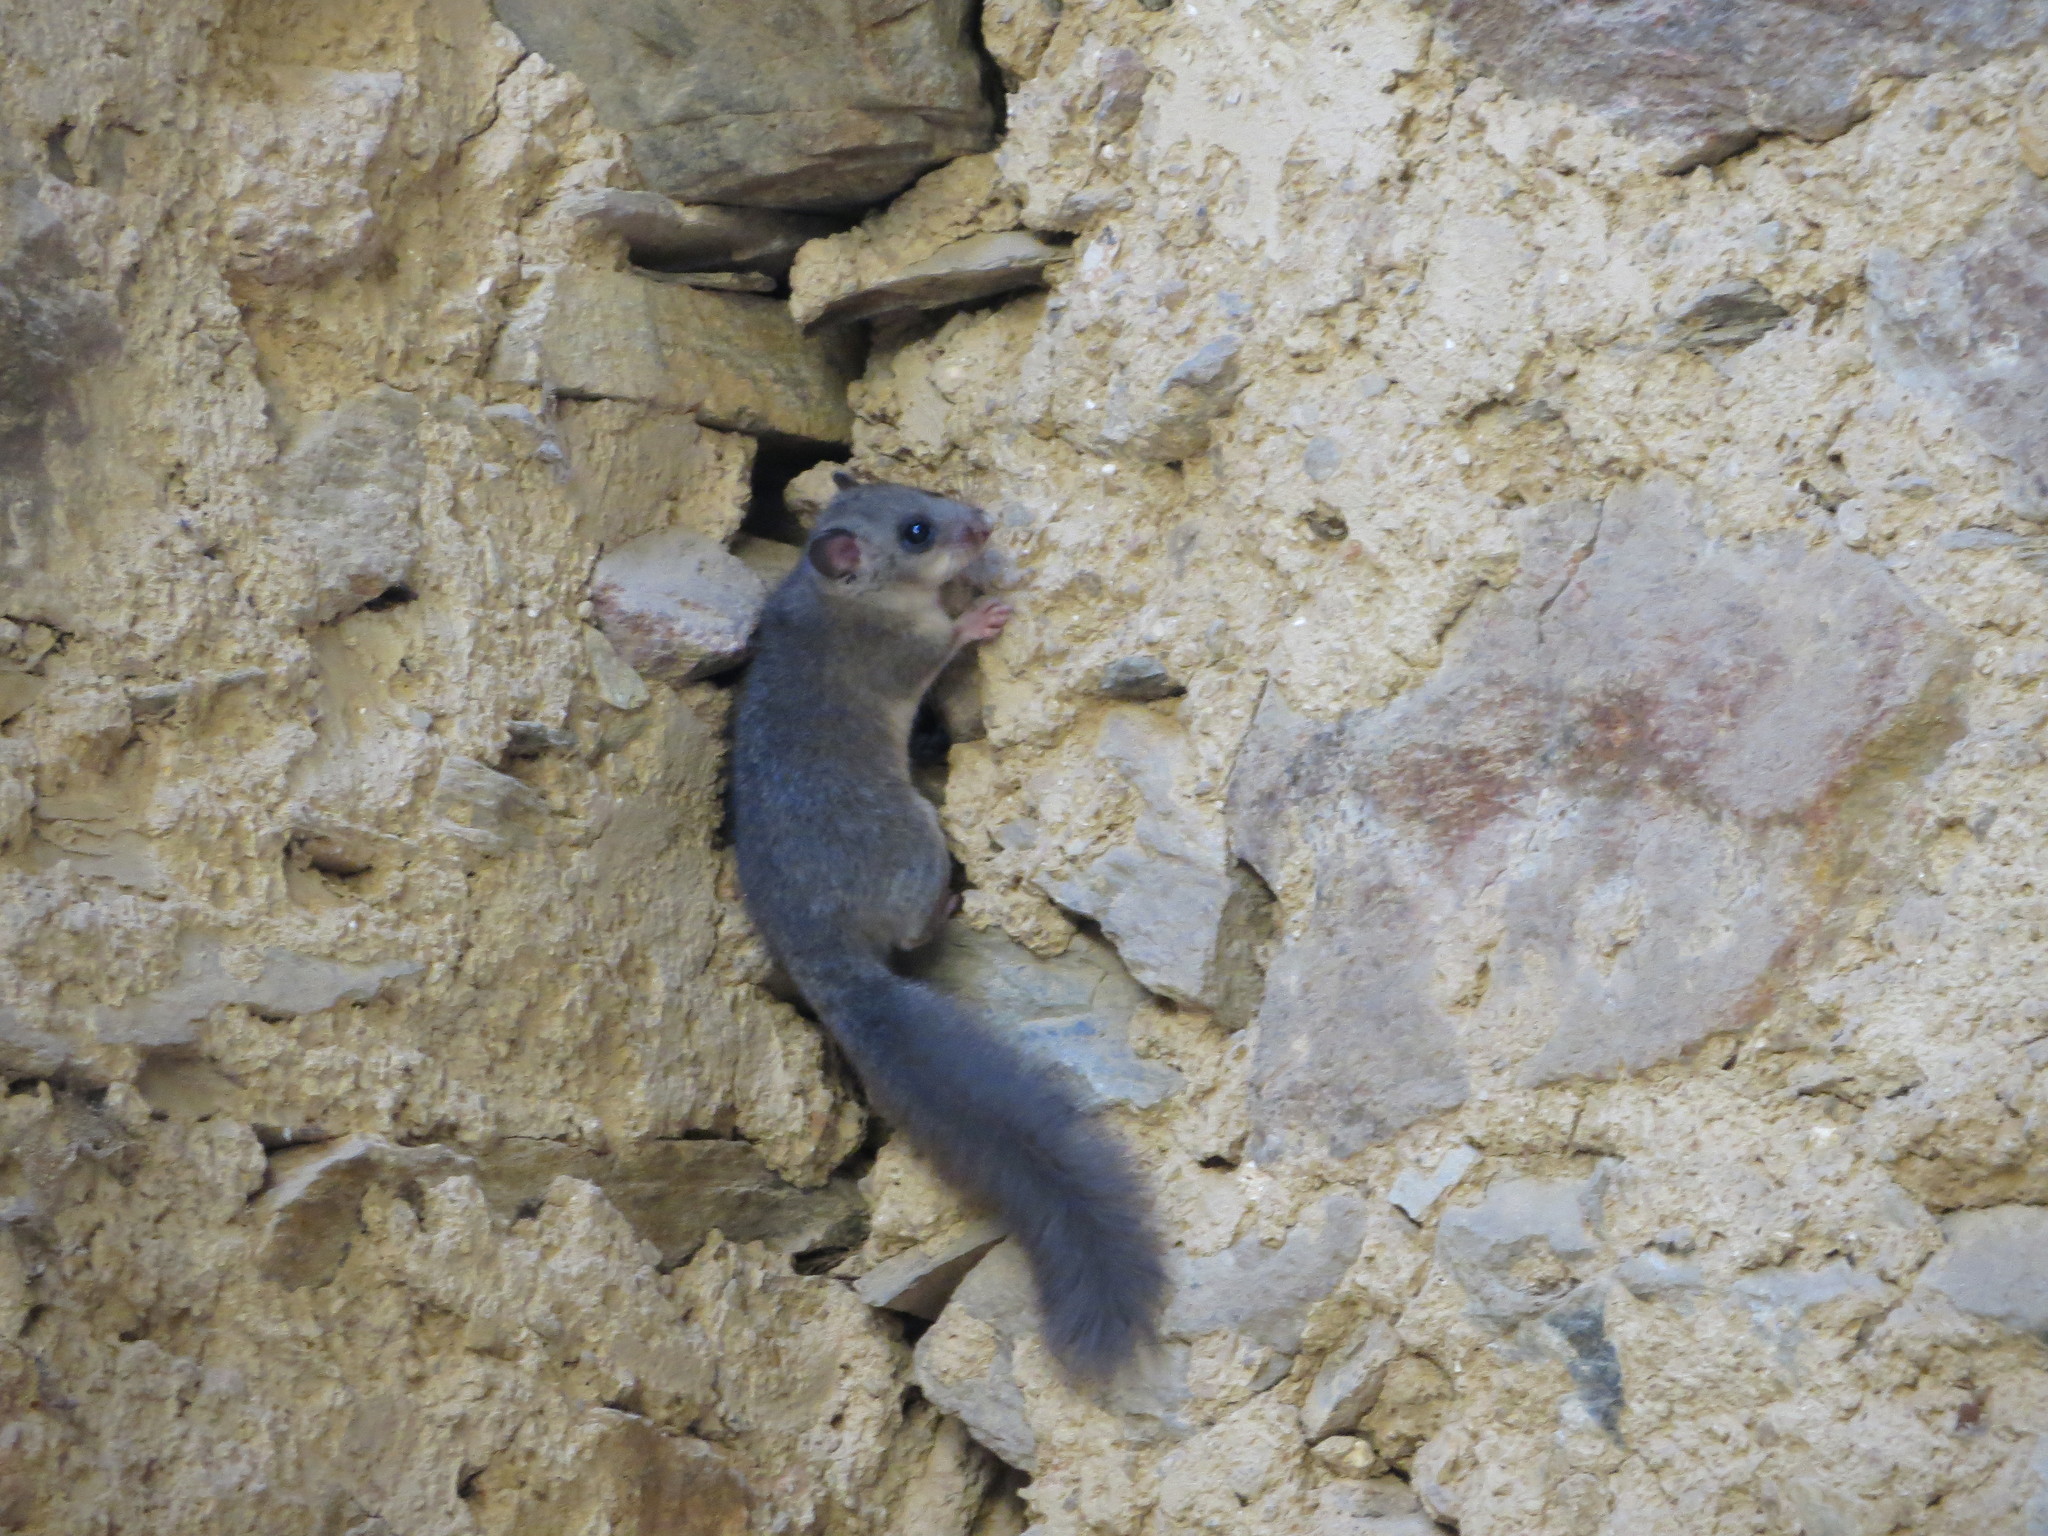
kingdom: Animalia
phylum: Chordata
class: Mammalia
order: Rodentia
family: Gliridae
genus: Glis
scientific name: Glis glis
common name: Fat dormouse
